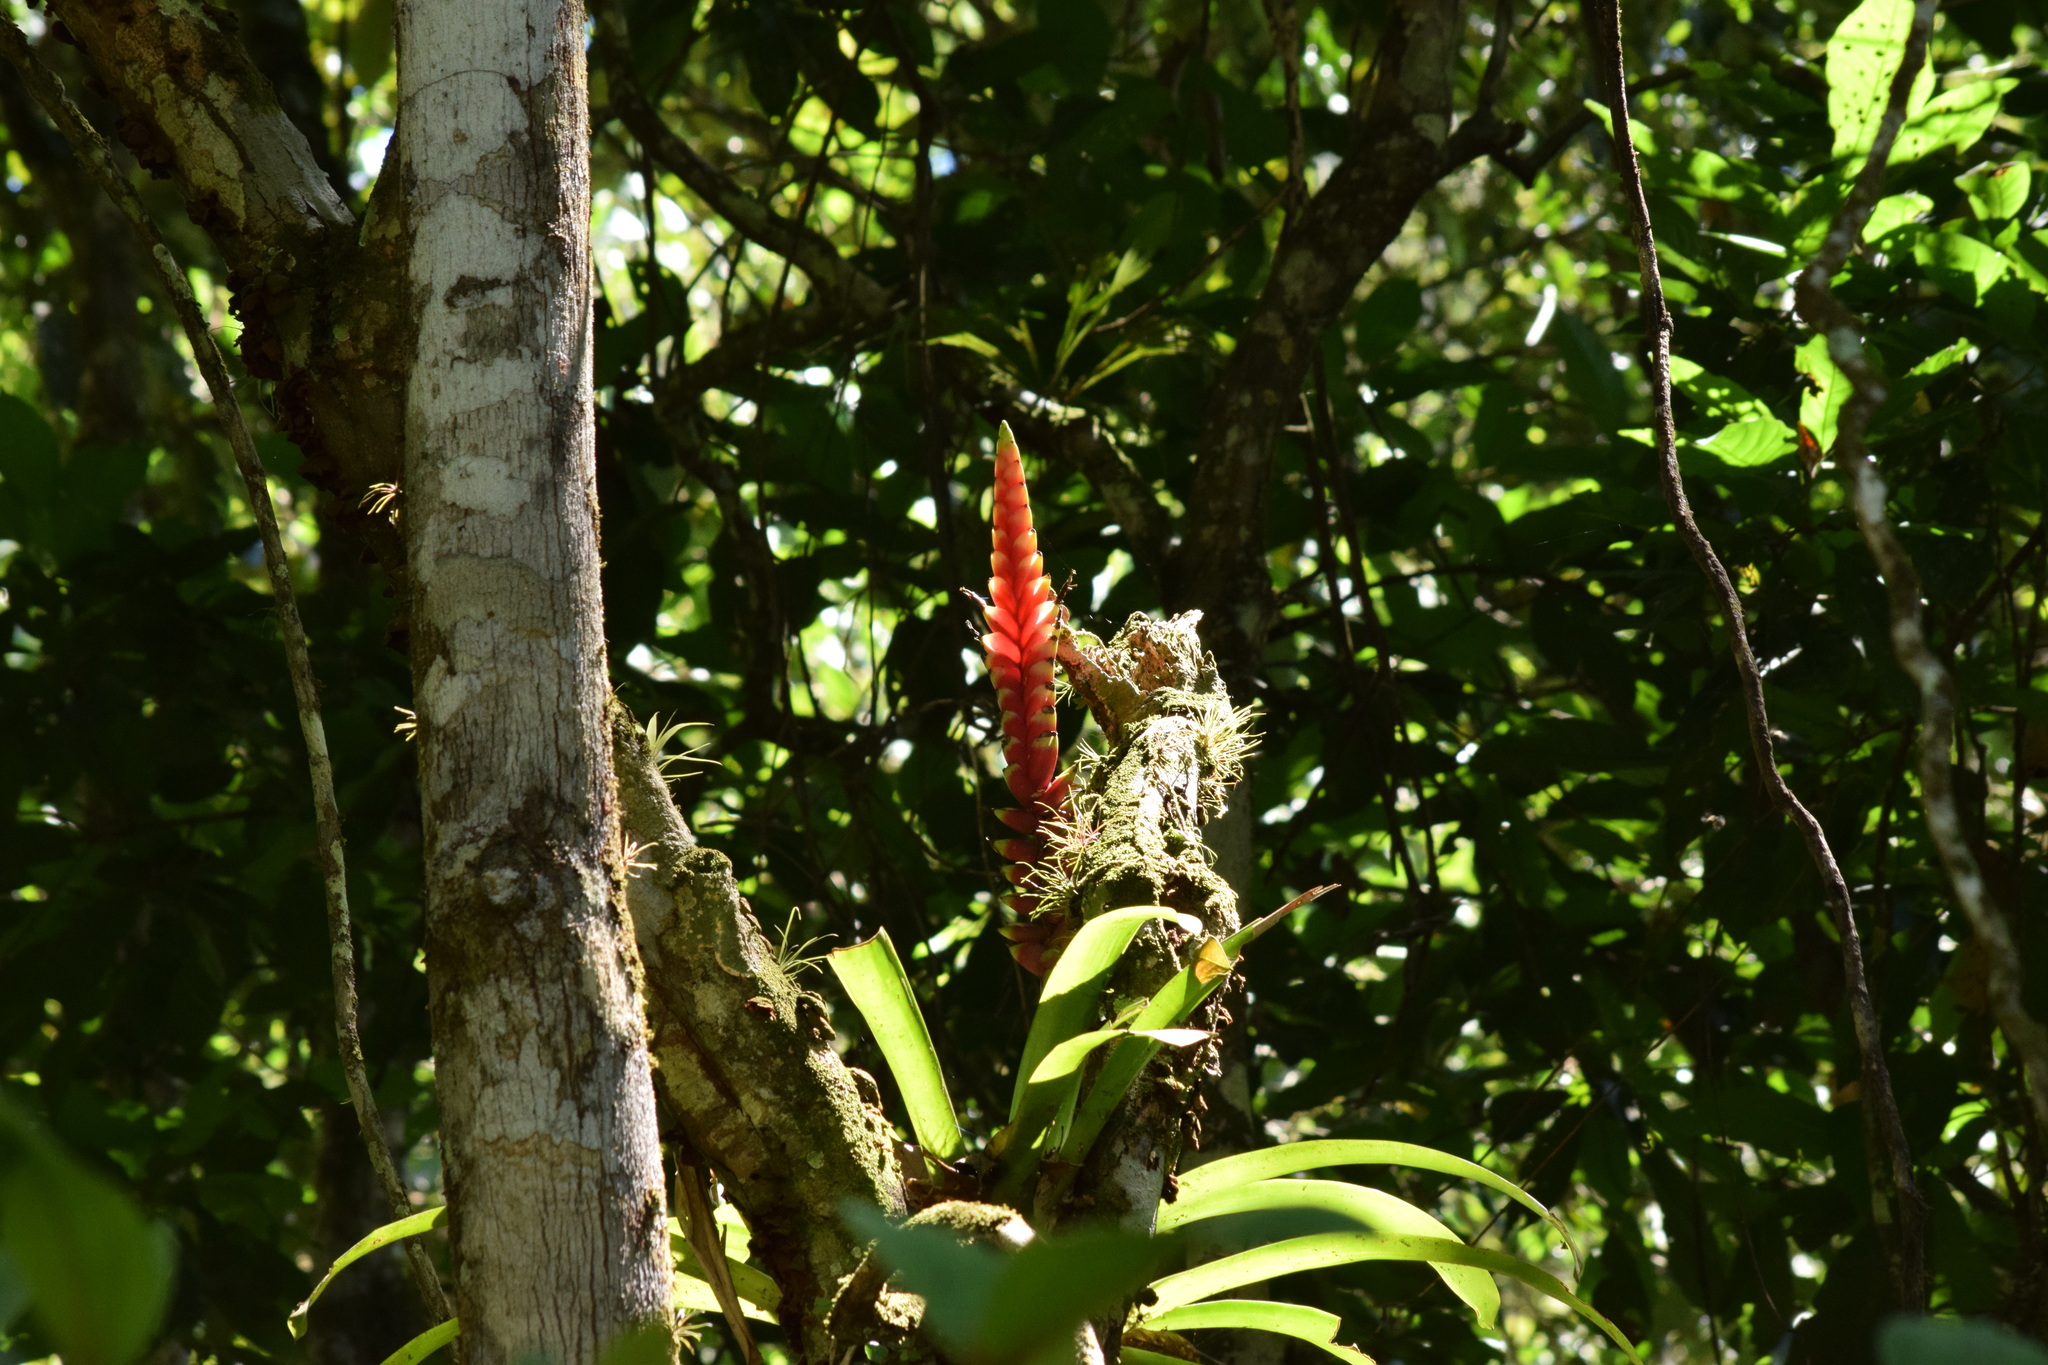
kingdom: Plantae
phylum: Tracheophyta
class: Liliopsida
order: Poales
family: Bromeliaceae
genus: Vriesea
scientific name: Vriesea ensiformis
